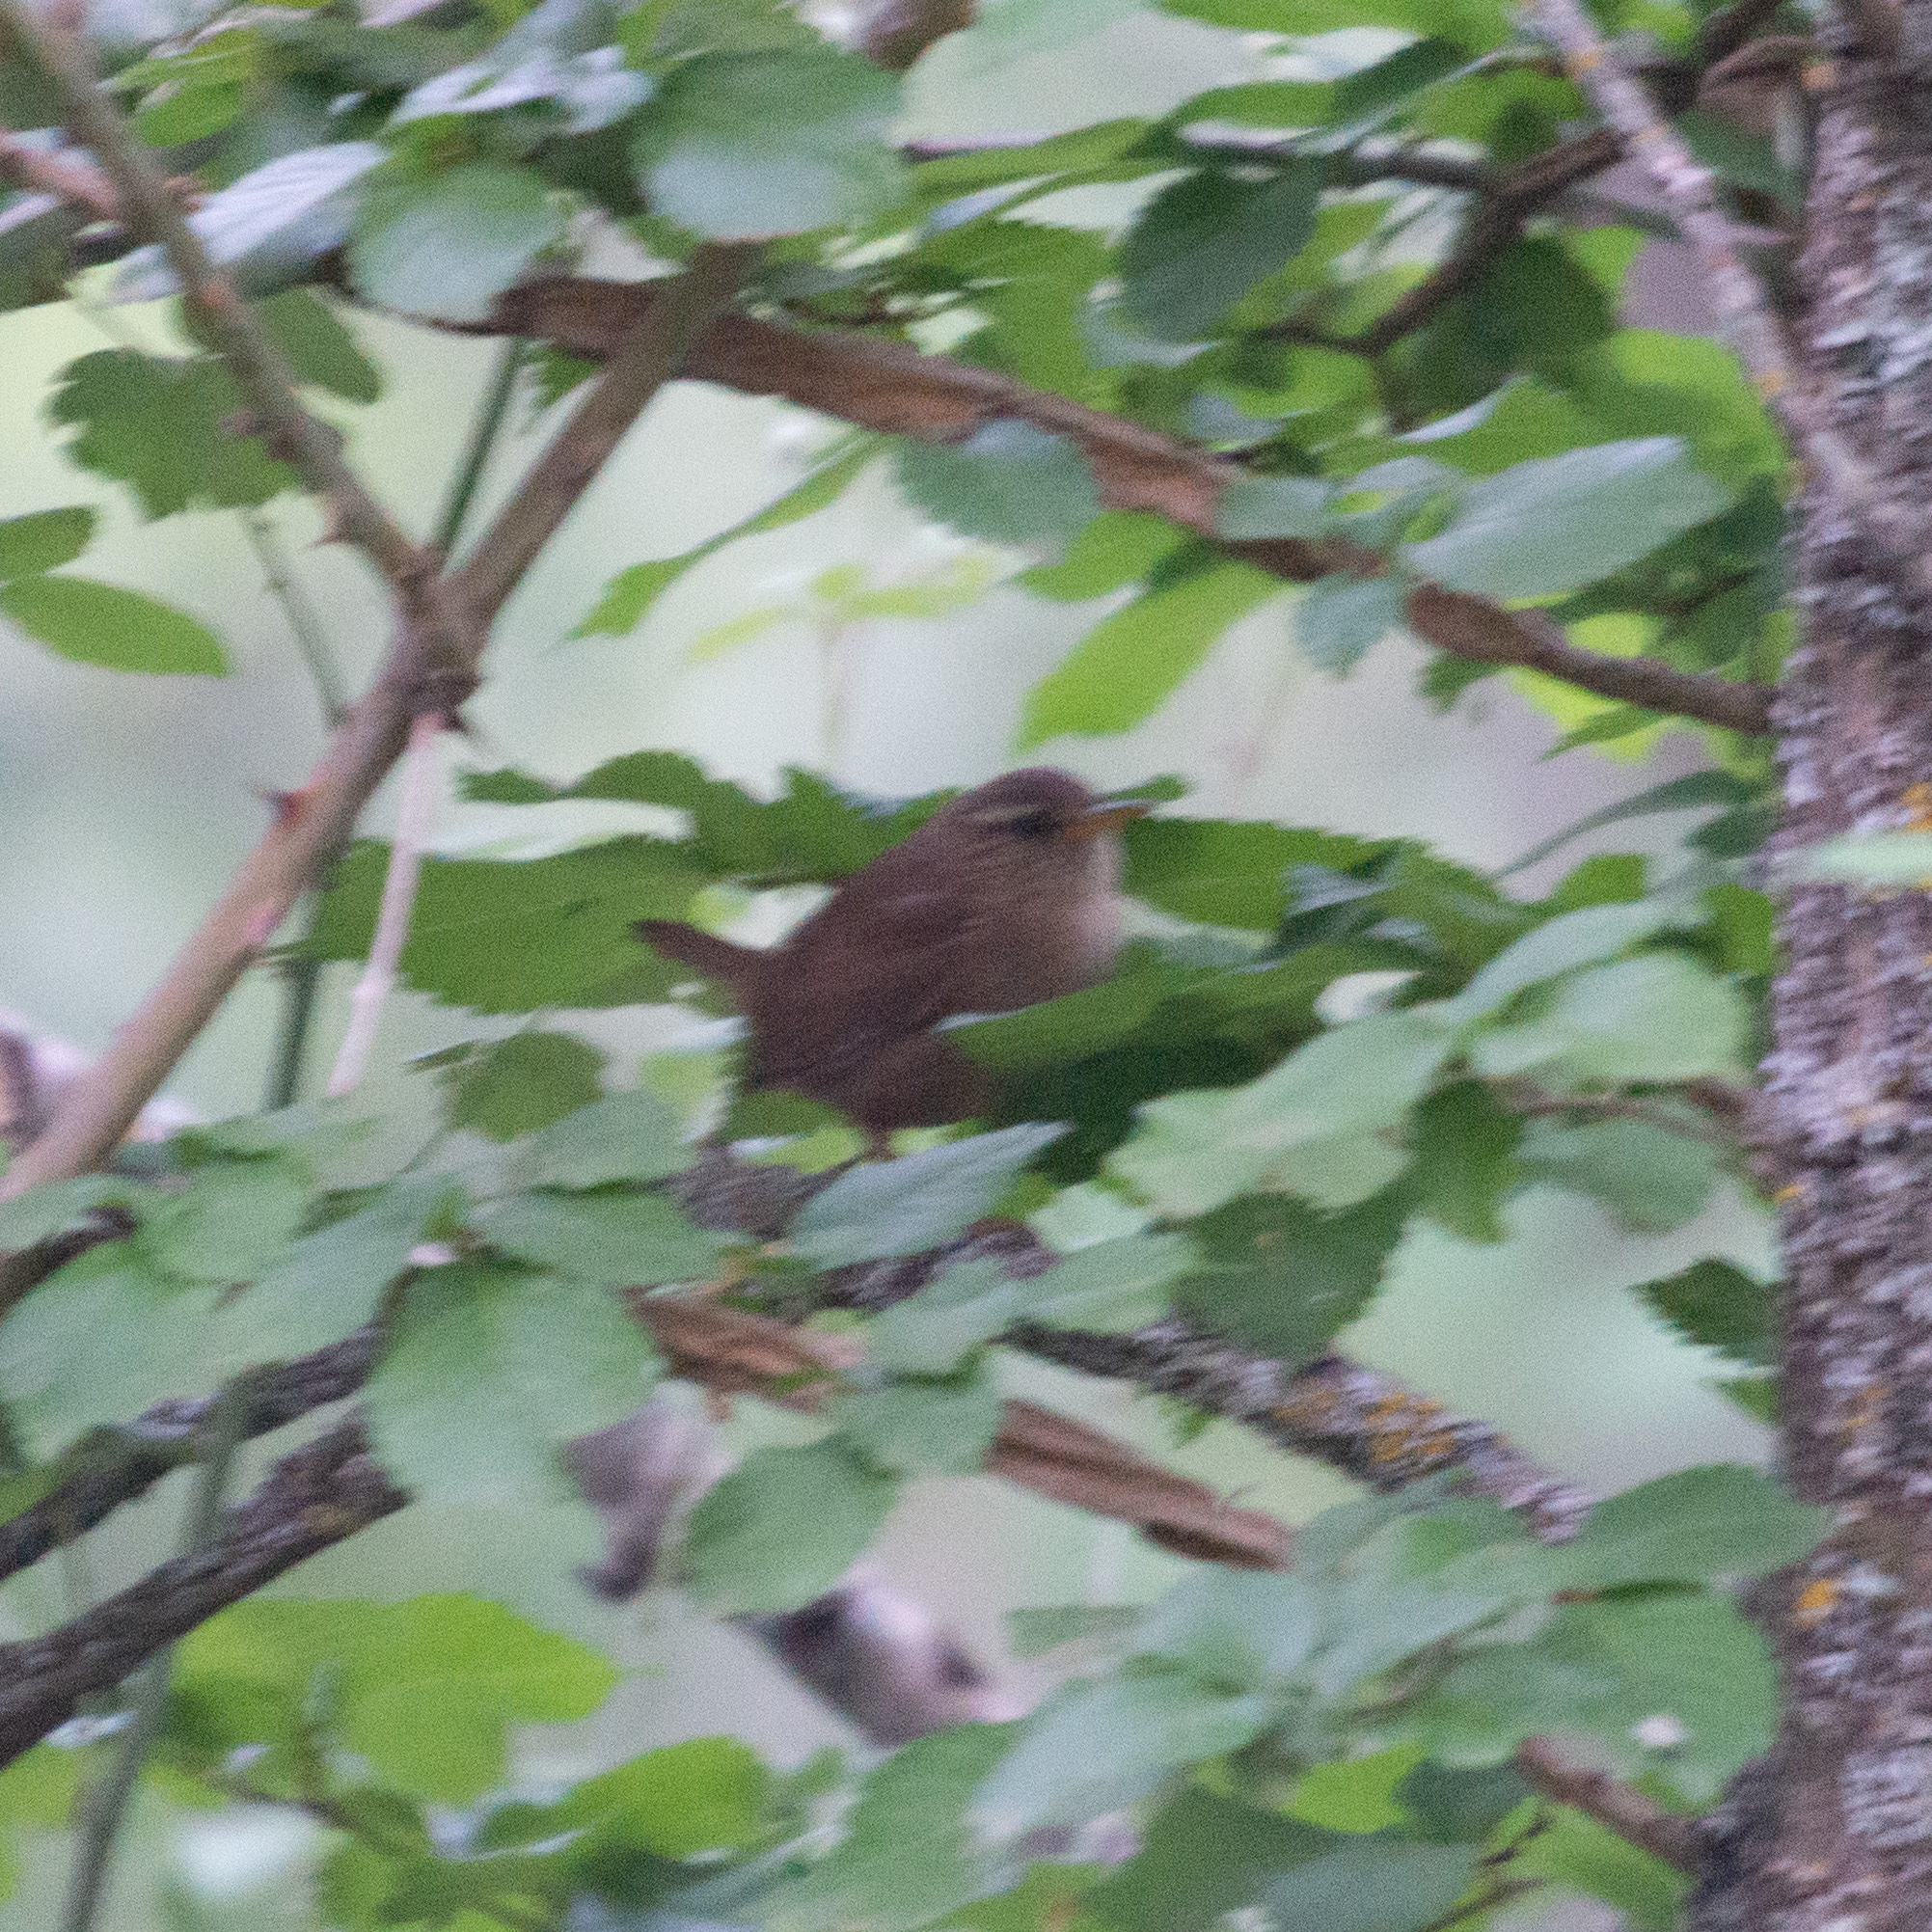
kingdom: Animalia
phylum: Chordata
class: Aves
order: Passeriformes
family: Troglodytidae
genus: Troglodytes
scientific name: Troglodytes troglodytes
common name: Eurasian wren
